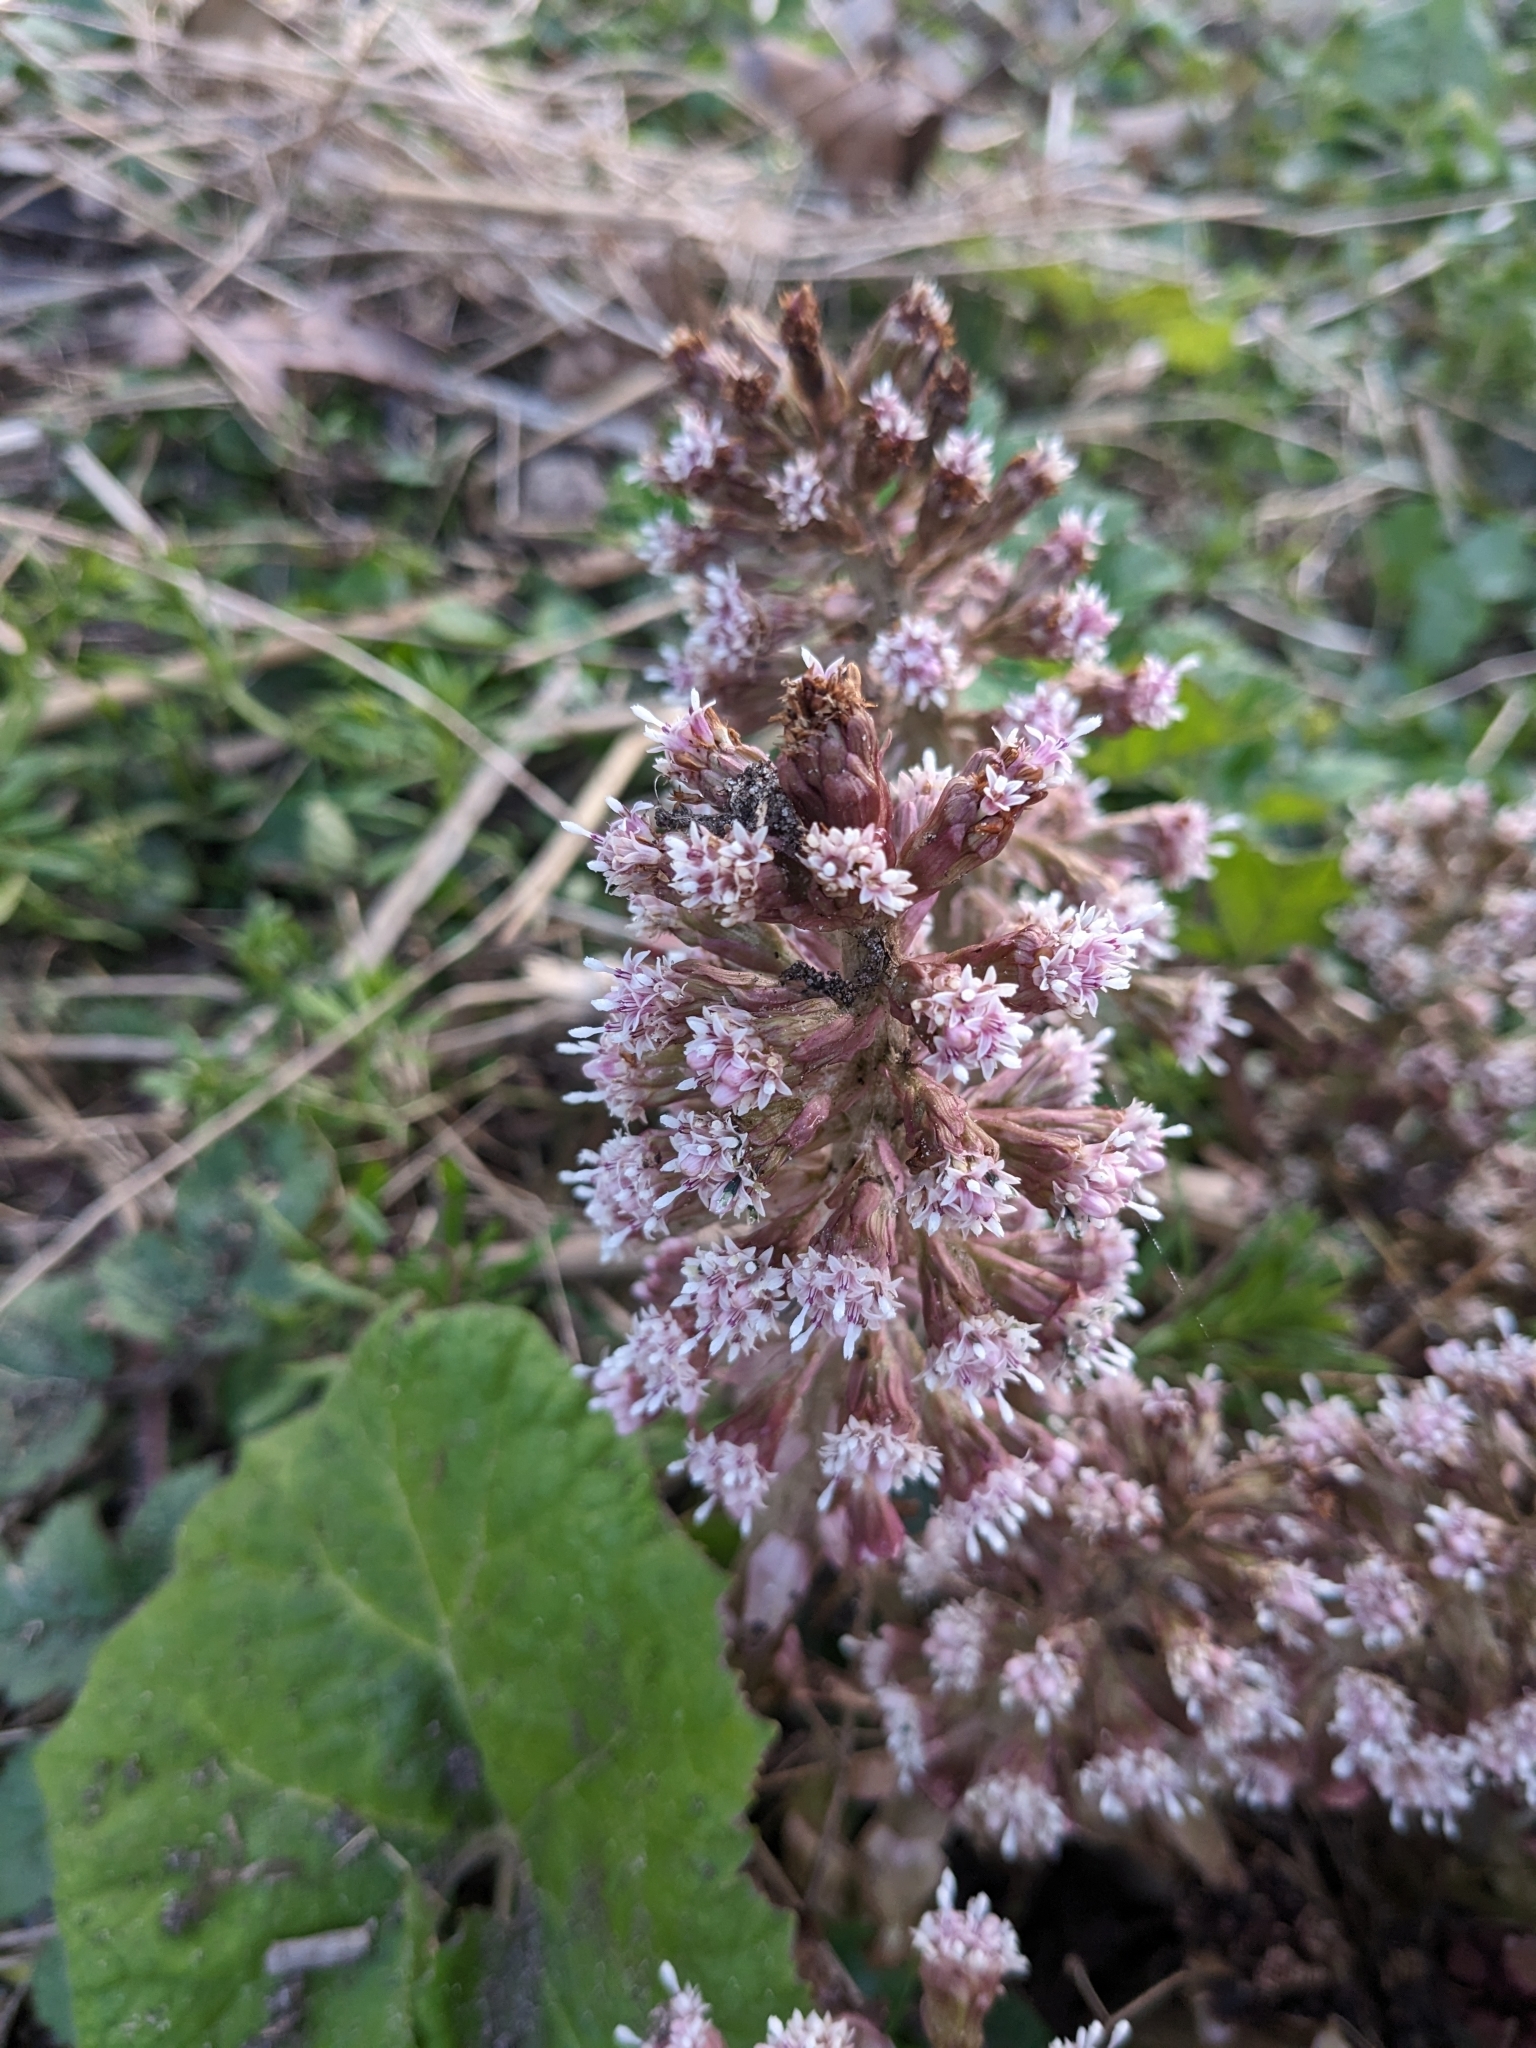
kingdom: Plantae
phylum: Tracheophyta
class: Magnoliopsida
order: Asterales
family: Asteraceae
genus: Petasites
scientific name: Petasites hybridus
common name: Butterbur
